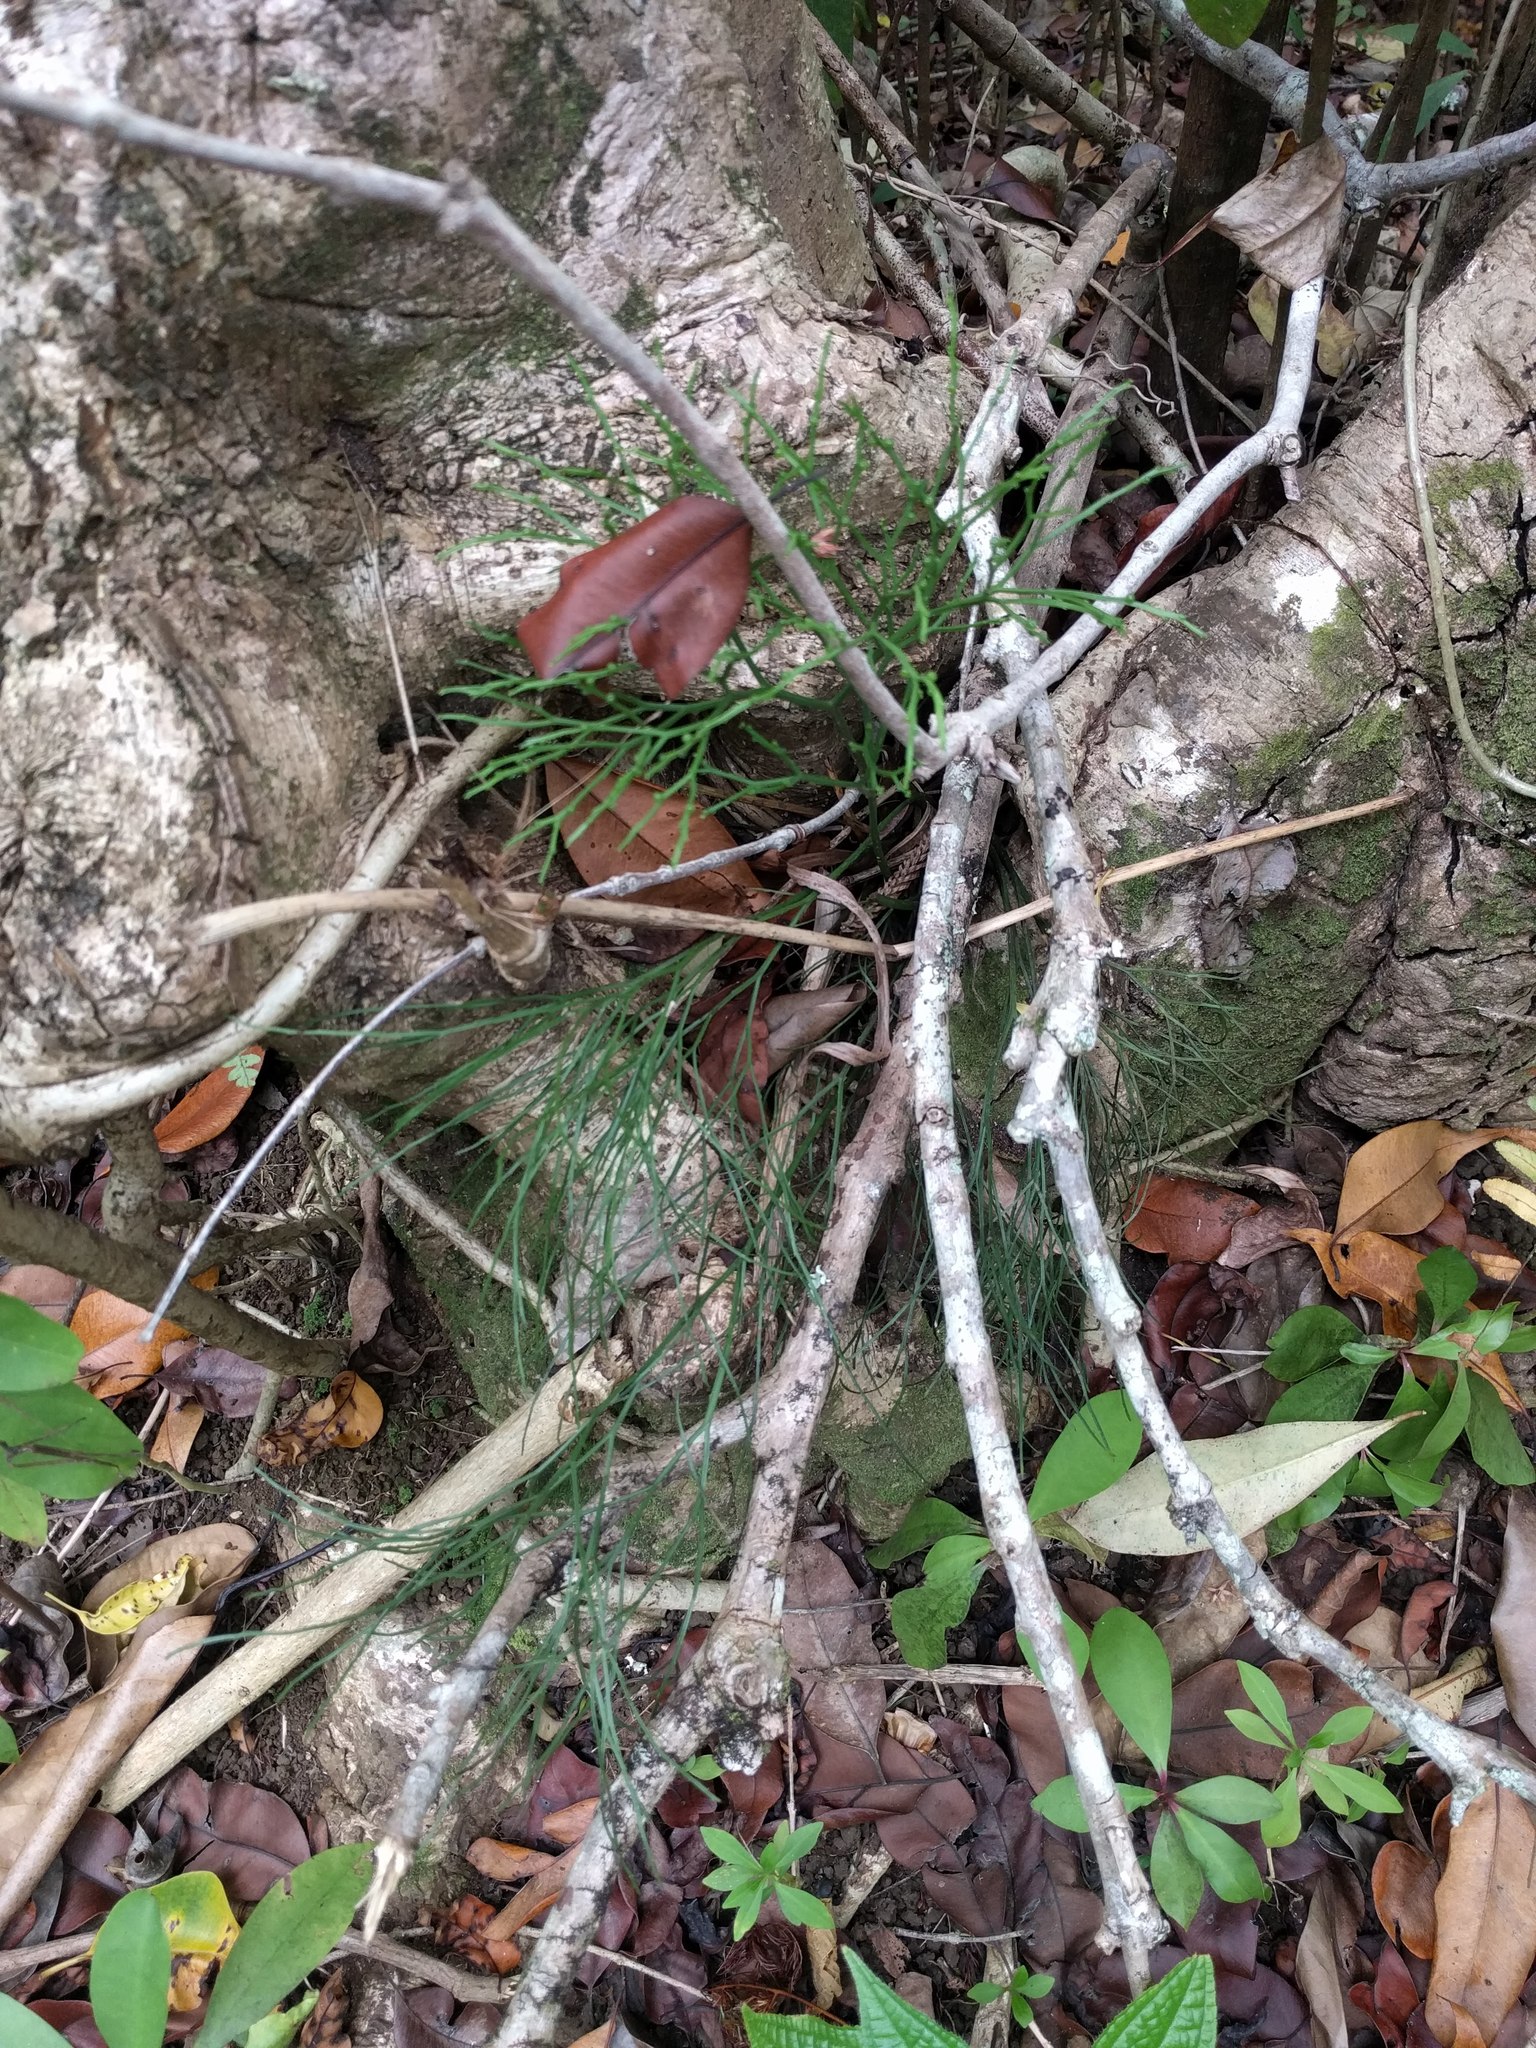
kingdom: Plantae
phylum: Tracheophyta
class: Polypodiopsida
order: Psilotales
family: Psilotaceae
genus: Psilotum
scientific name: Psilotum nudum
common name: Skeleton fork fern
